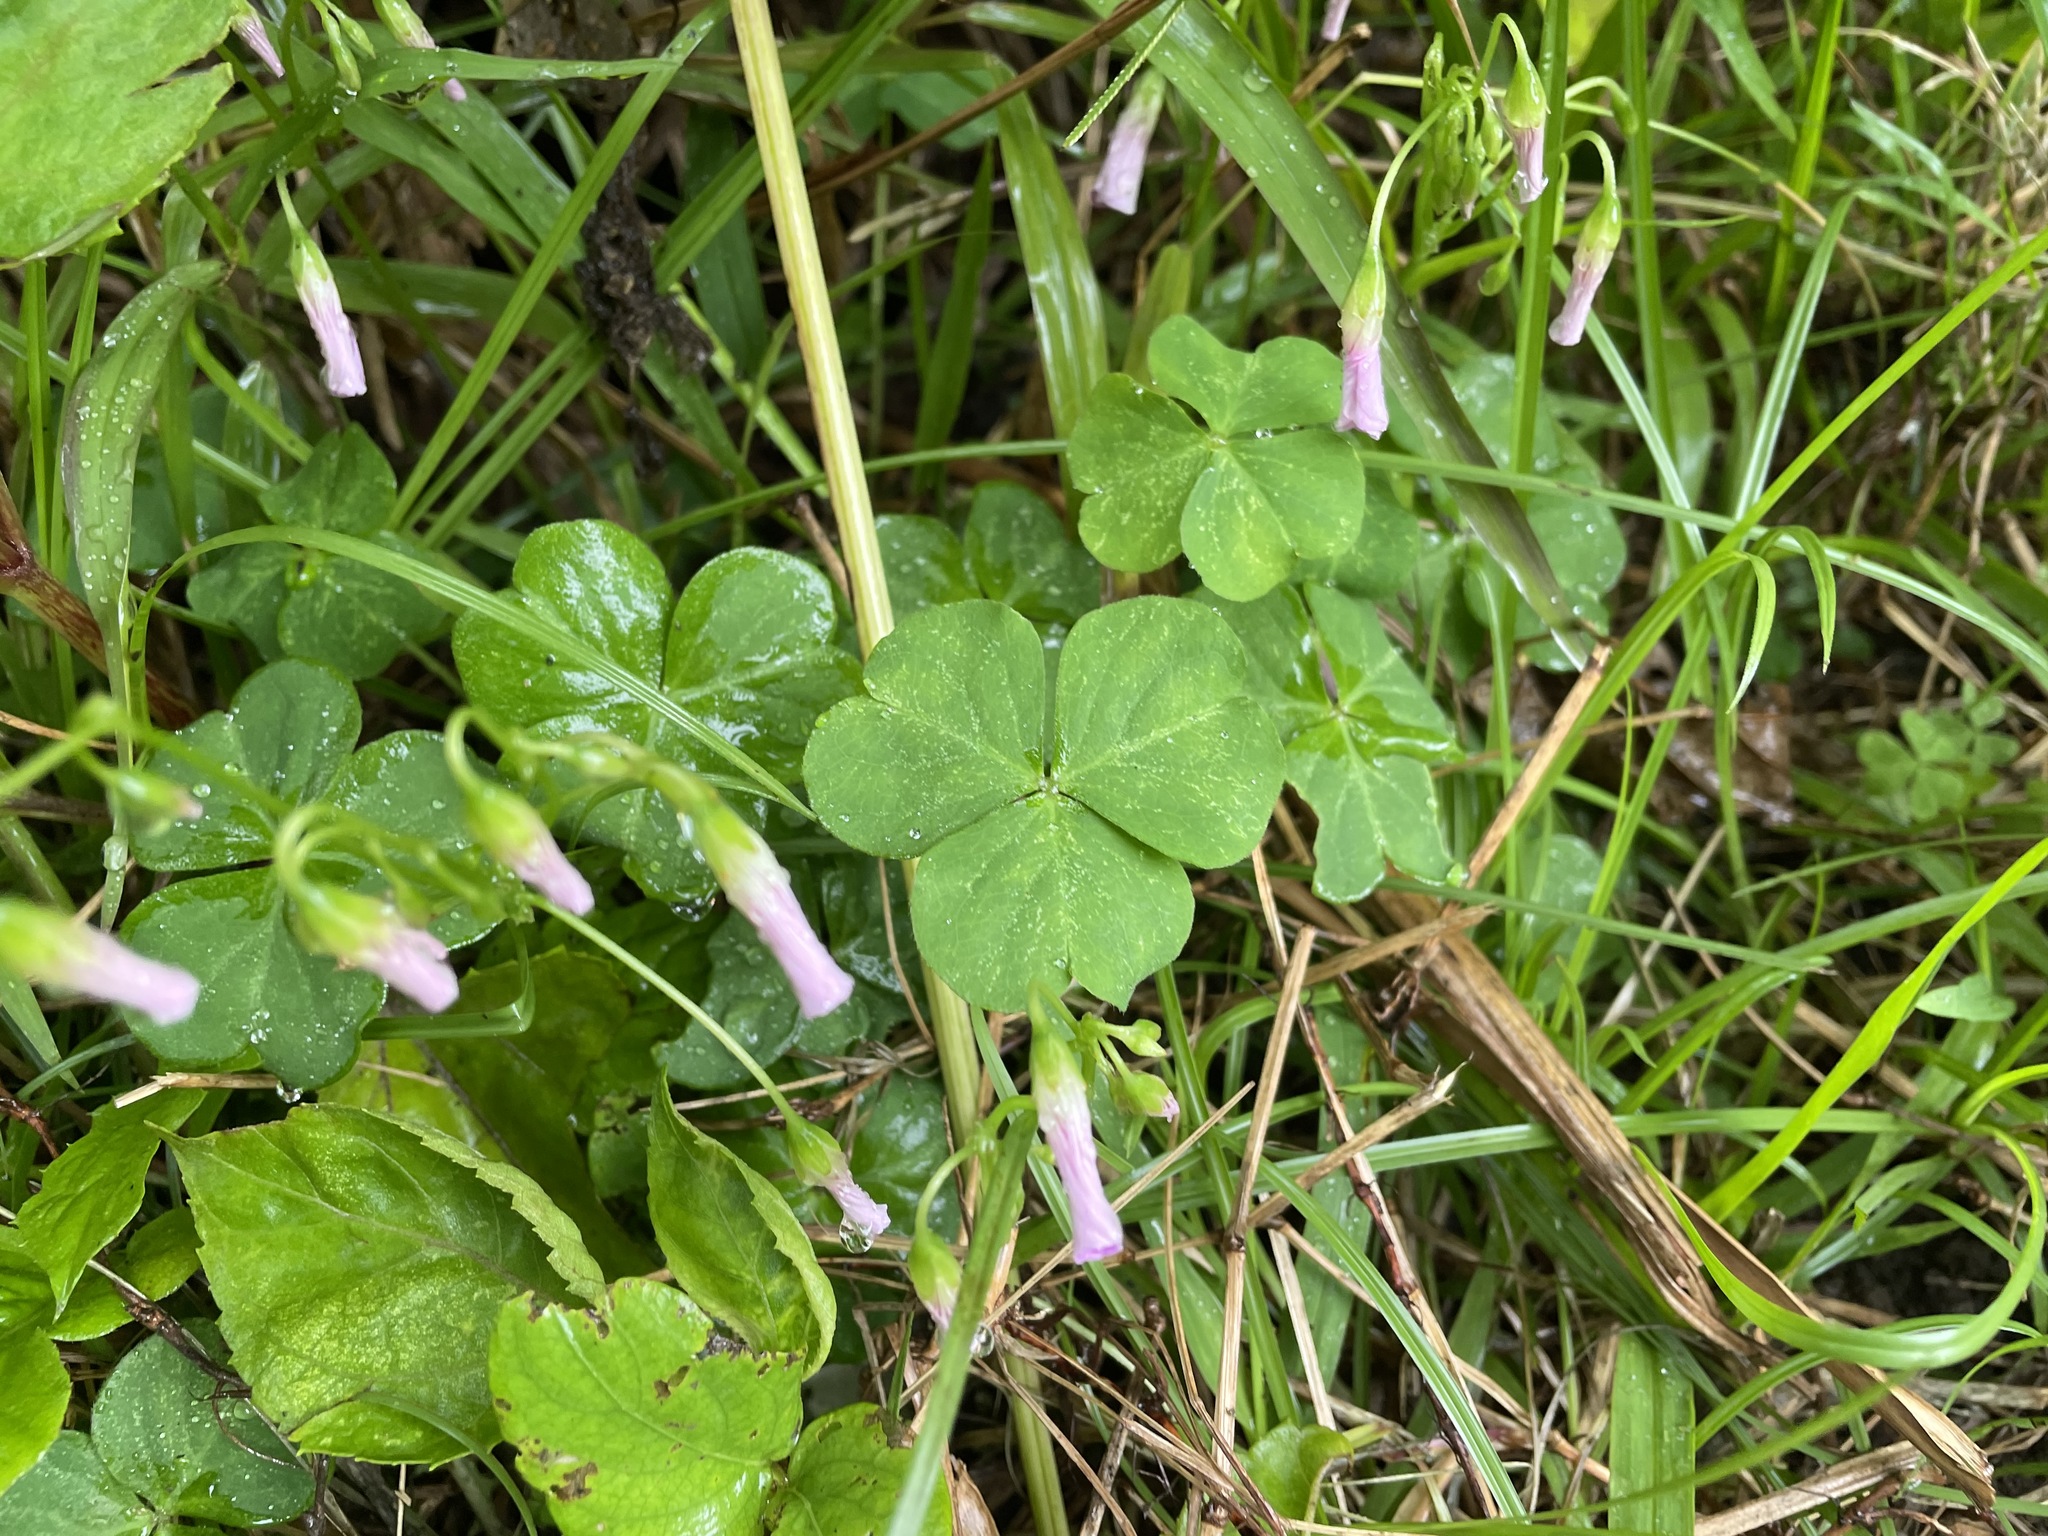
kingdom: Plantae
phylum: Tracheophyta
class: Magnoliopsida
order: Oxalidales
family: Oxalidaceae
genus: Oxalis
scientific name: Oxalis debilis
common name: Large-flowered pink-sorrel
